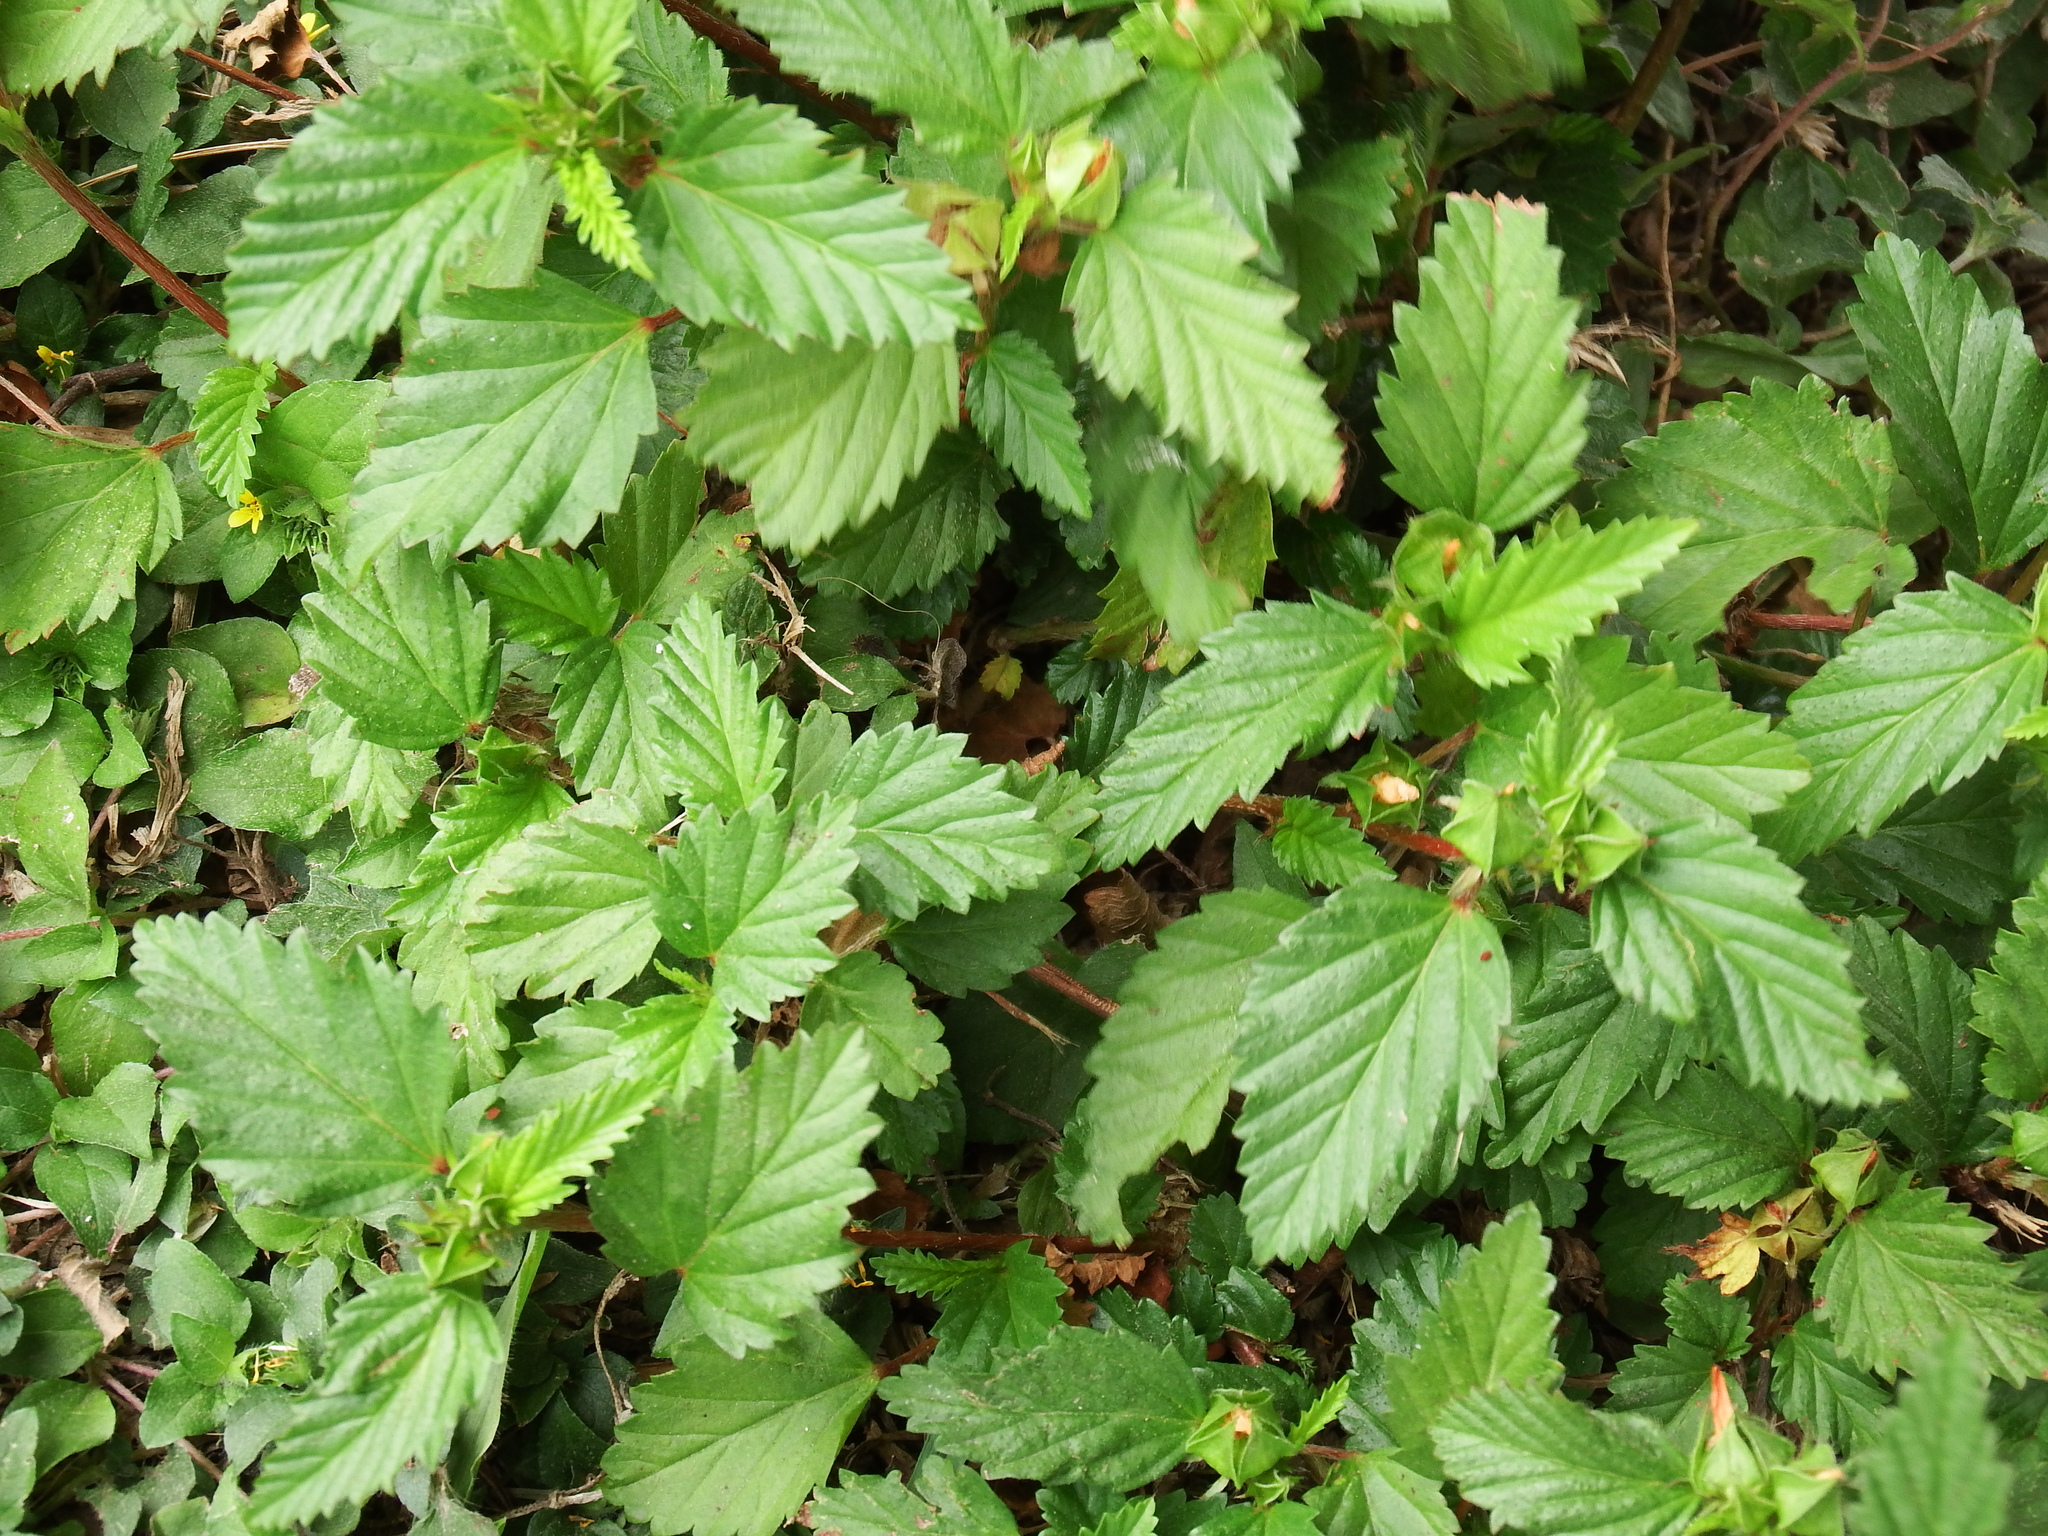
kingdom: Plantae
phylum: Tracheophyta
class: Magnoliopsida
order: Malvales
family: Malvaceae
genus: Malvastrum
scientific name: Malvastrum coromandelianum
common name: Threelobe false mallow
